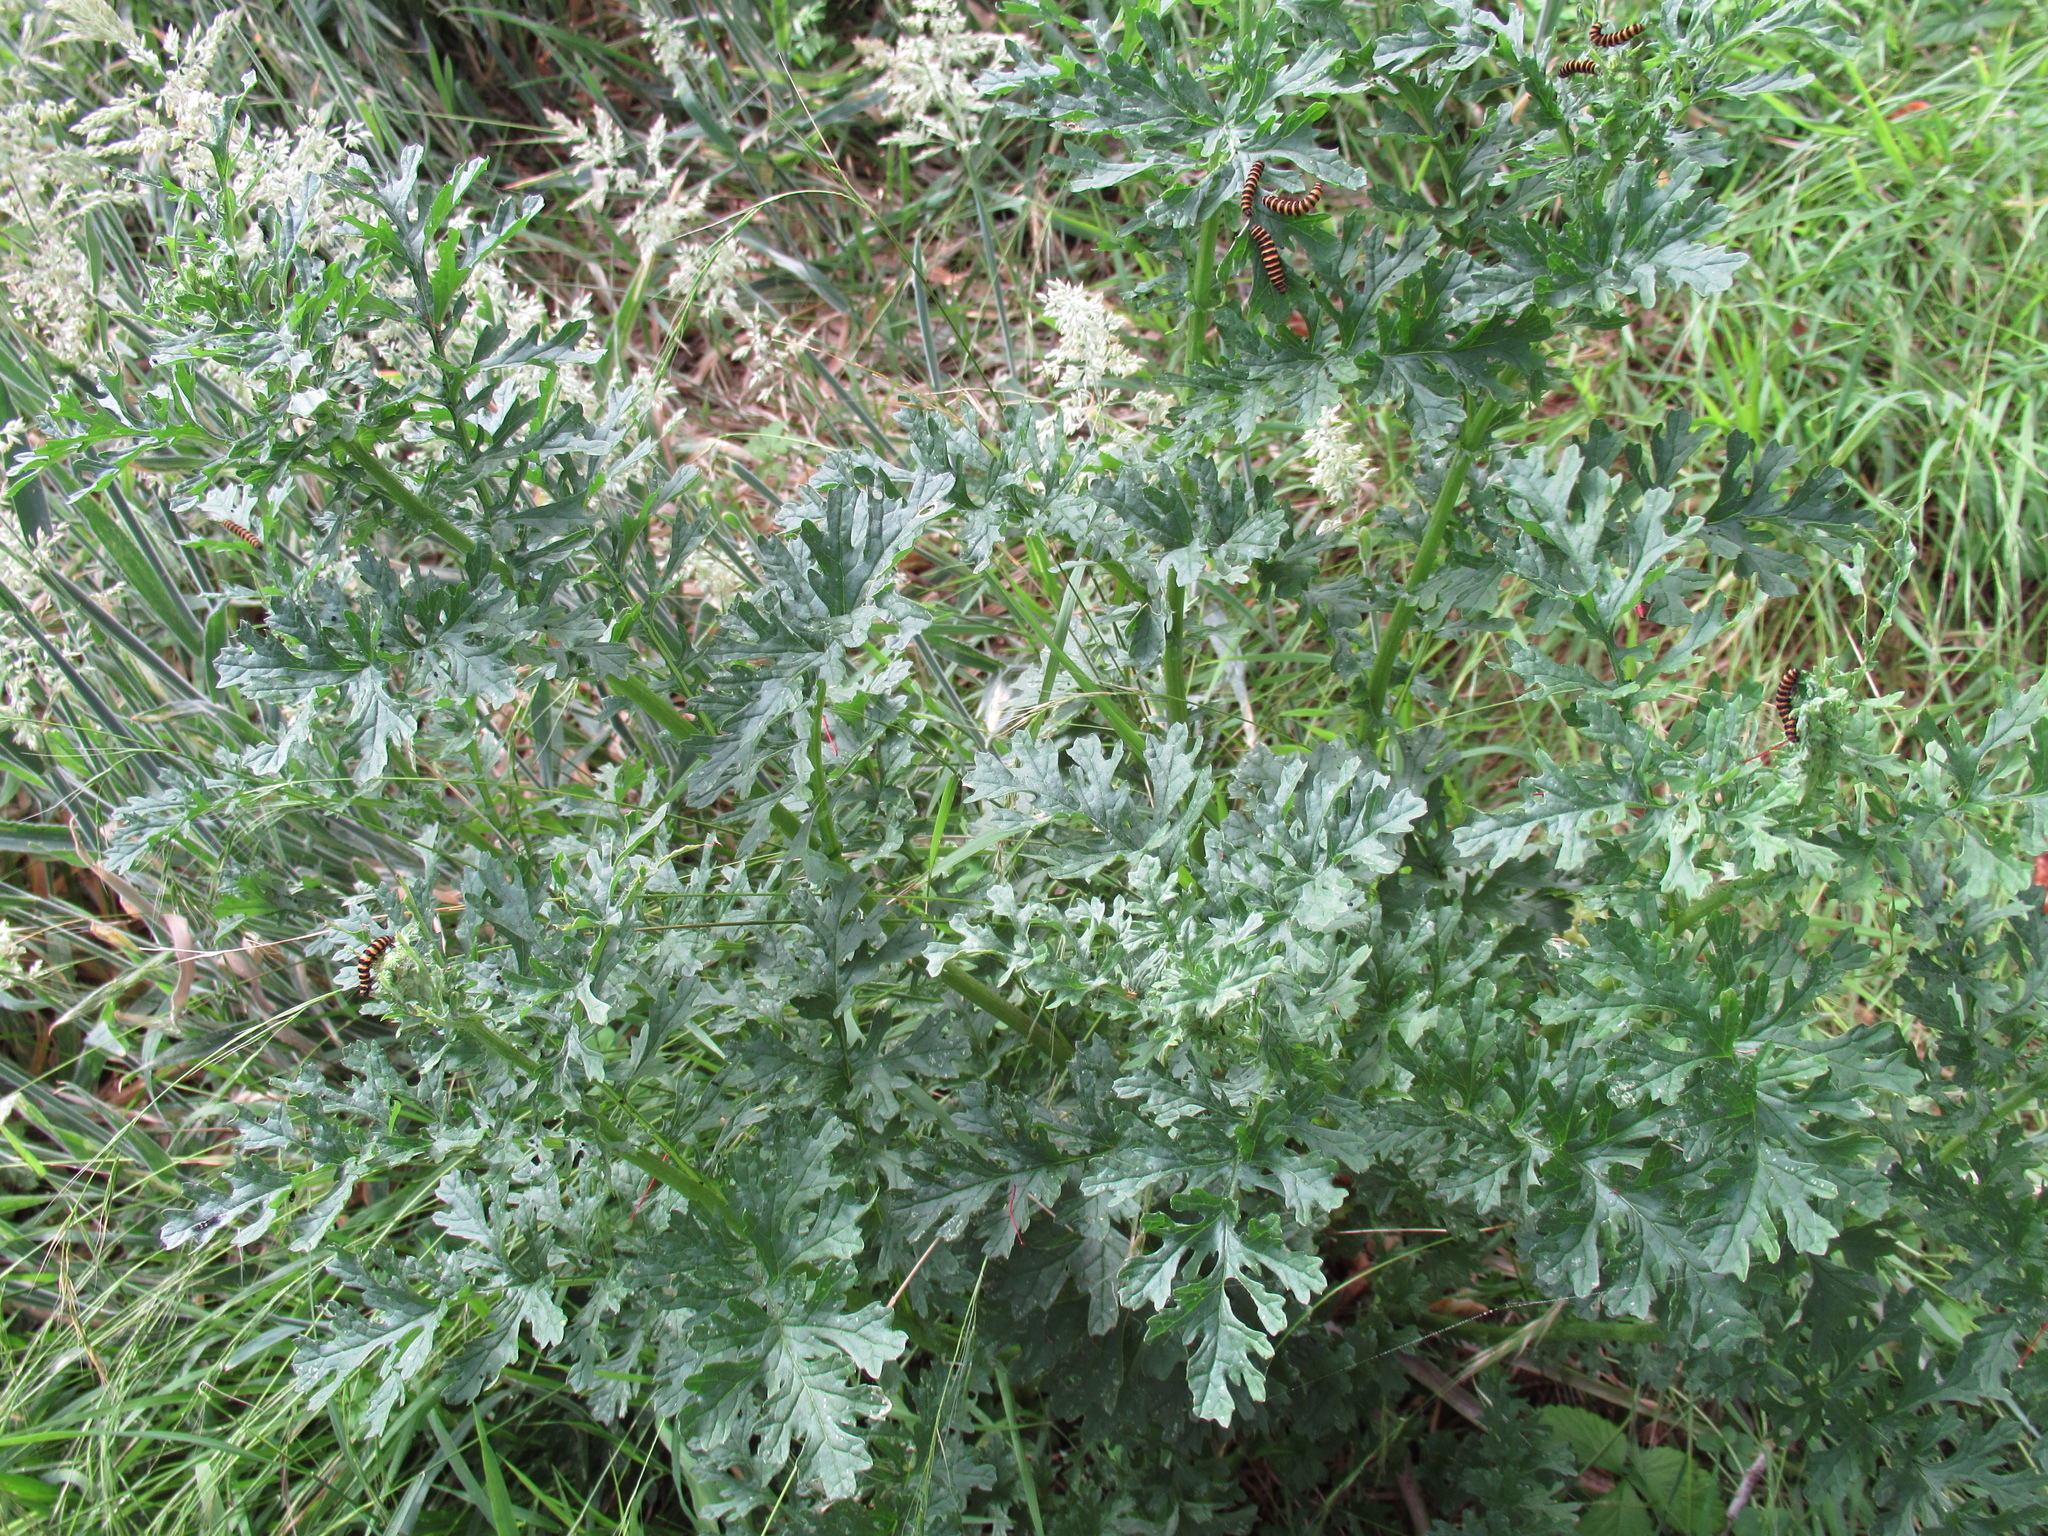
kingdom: Plantae
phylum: Tracheophyta
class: Magnoliopsida
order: Asterales
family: Asteraceae
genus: Jacobaea
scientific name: Jacobaea vulgaris
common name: Stinking willie
